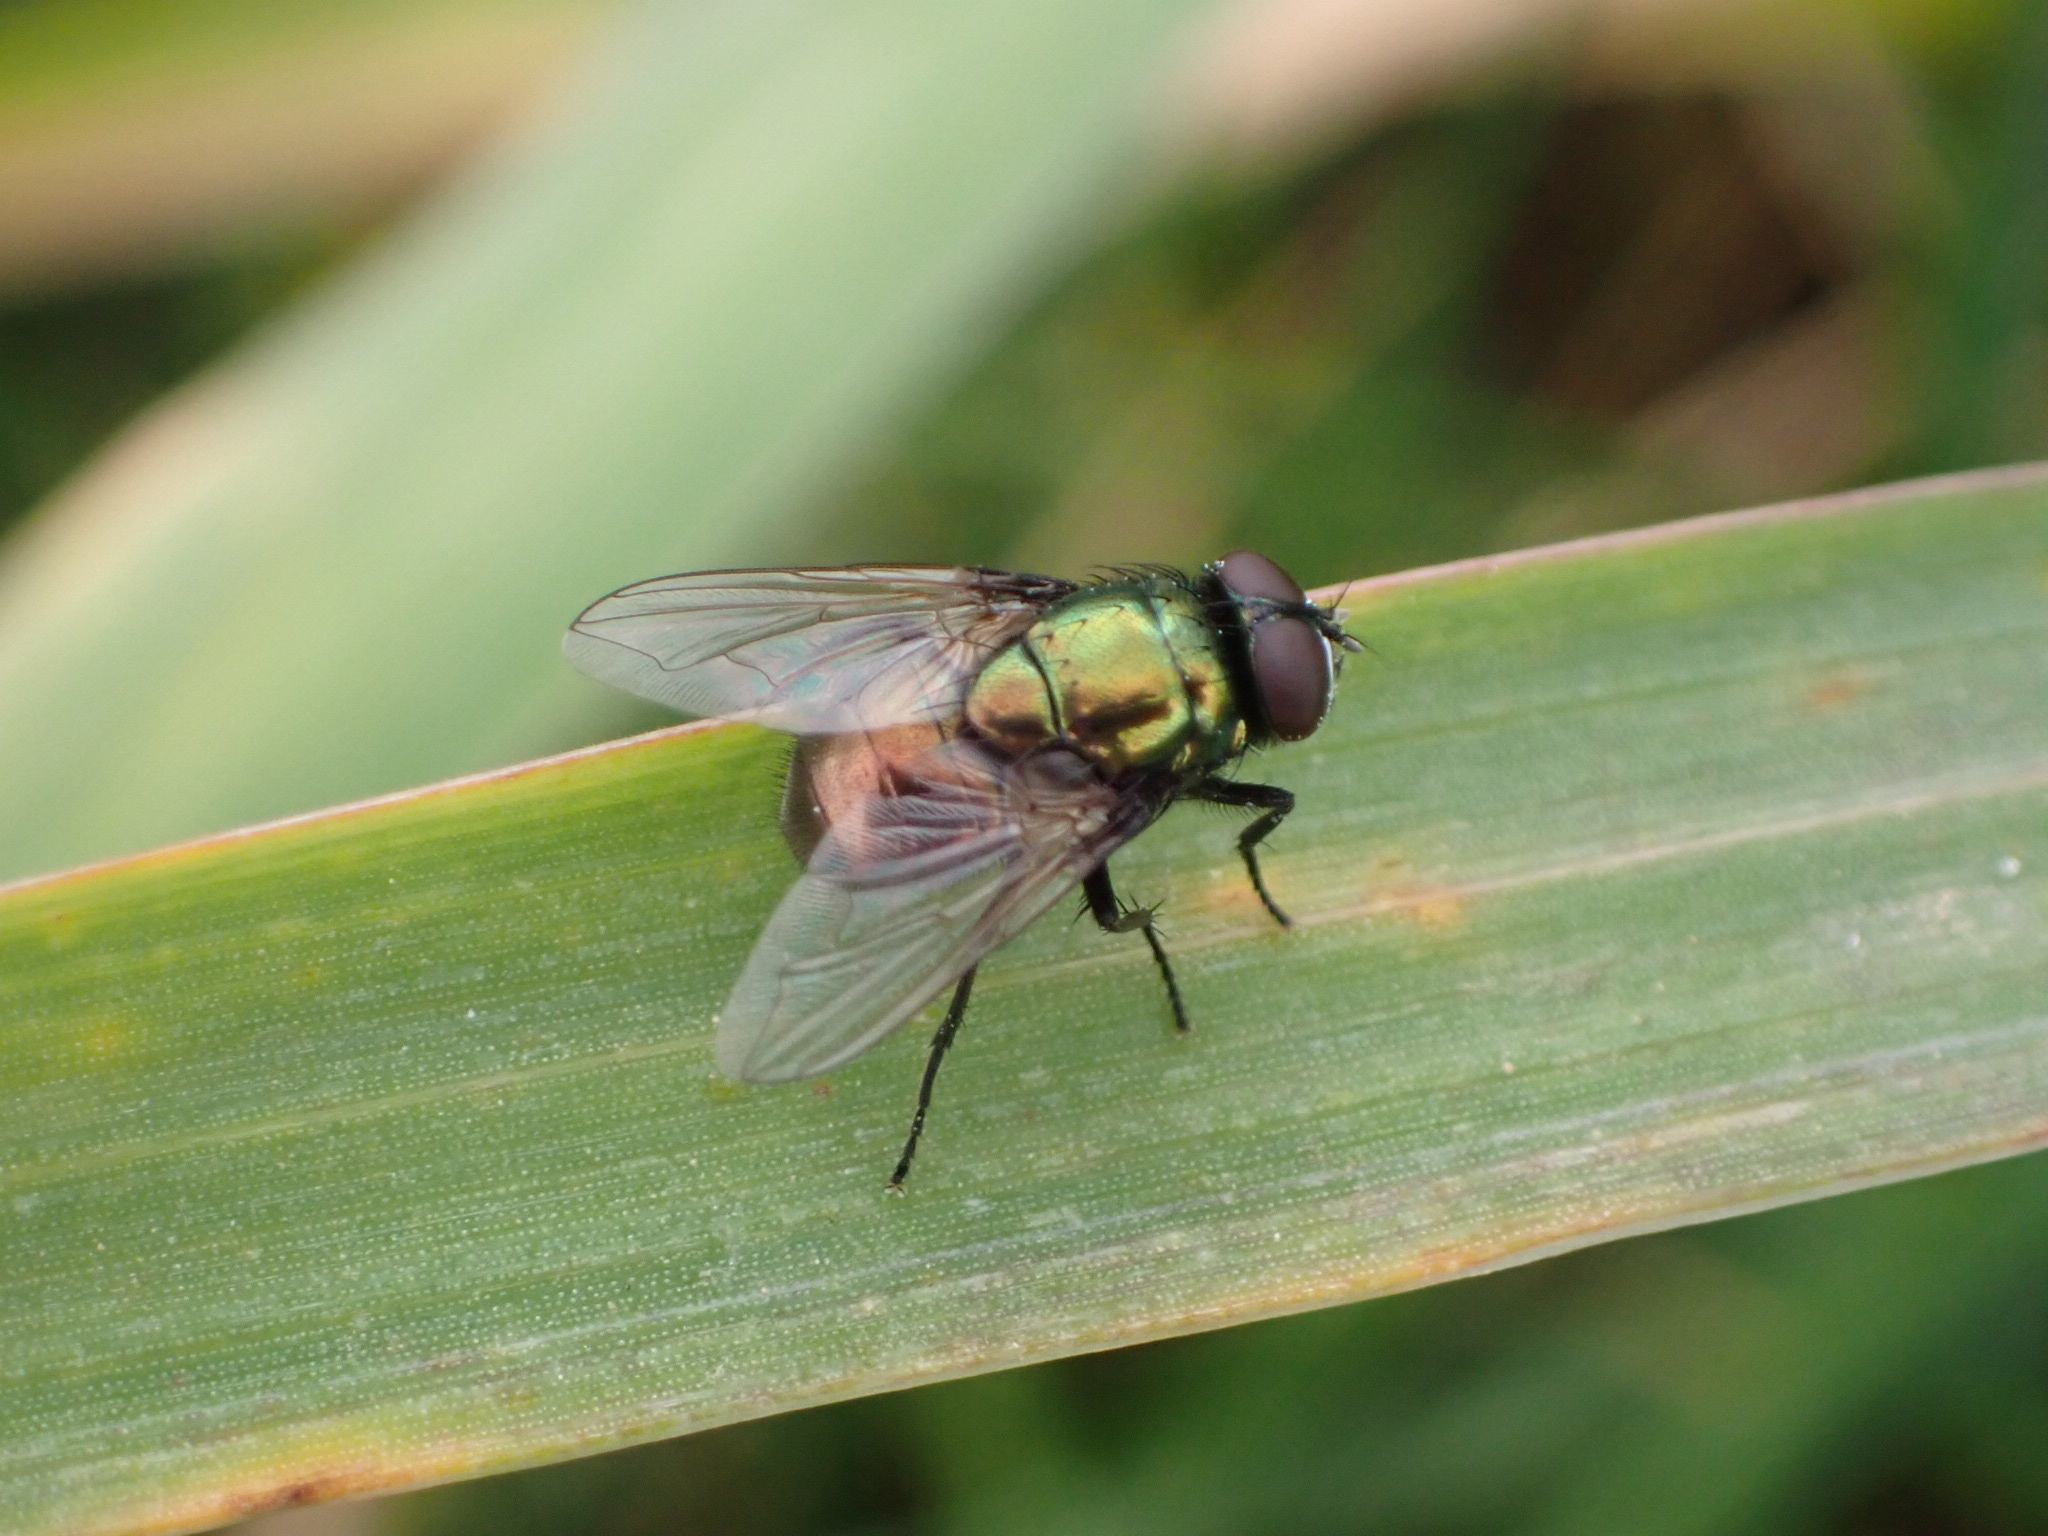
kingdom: Animalia
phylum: Arthropoda
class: Insecta
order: Diptera
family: Muscidae
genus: Neomyia
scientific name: Neomyia cornicina
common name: House fly
